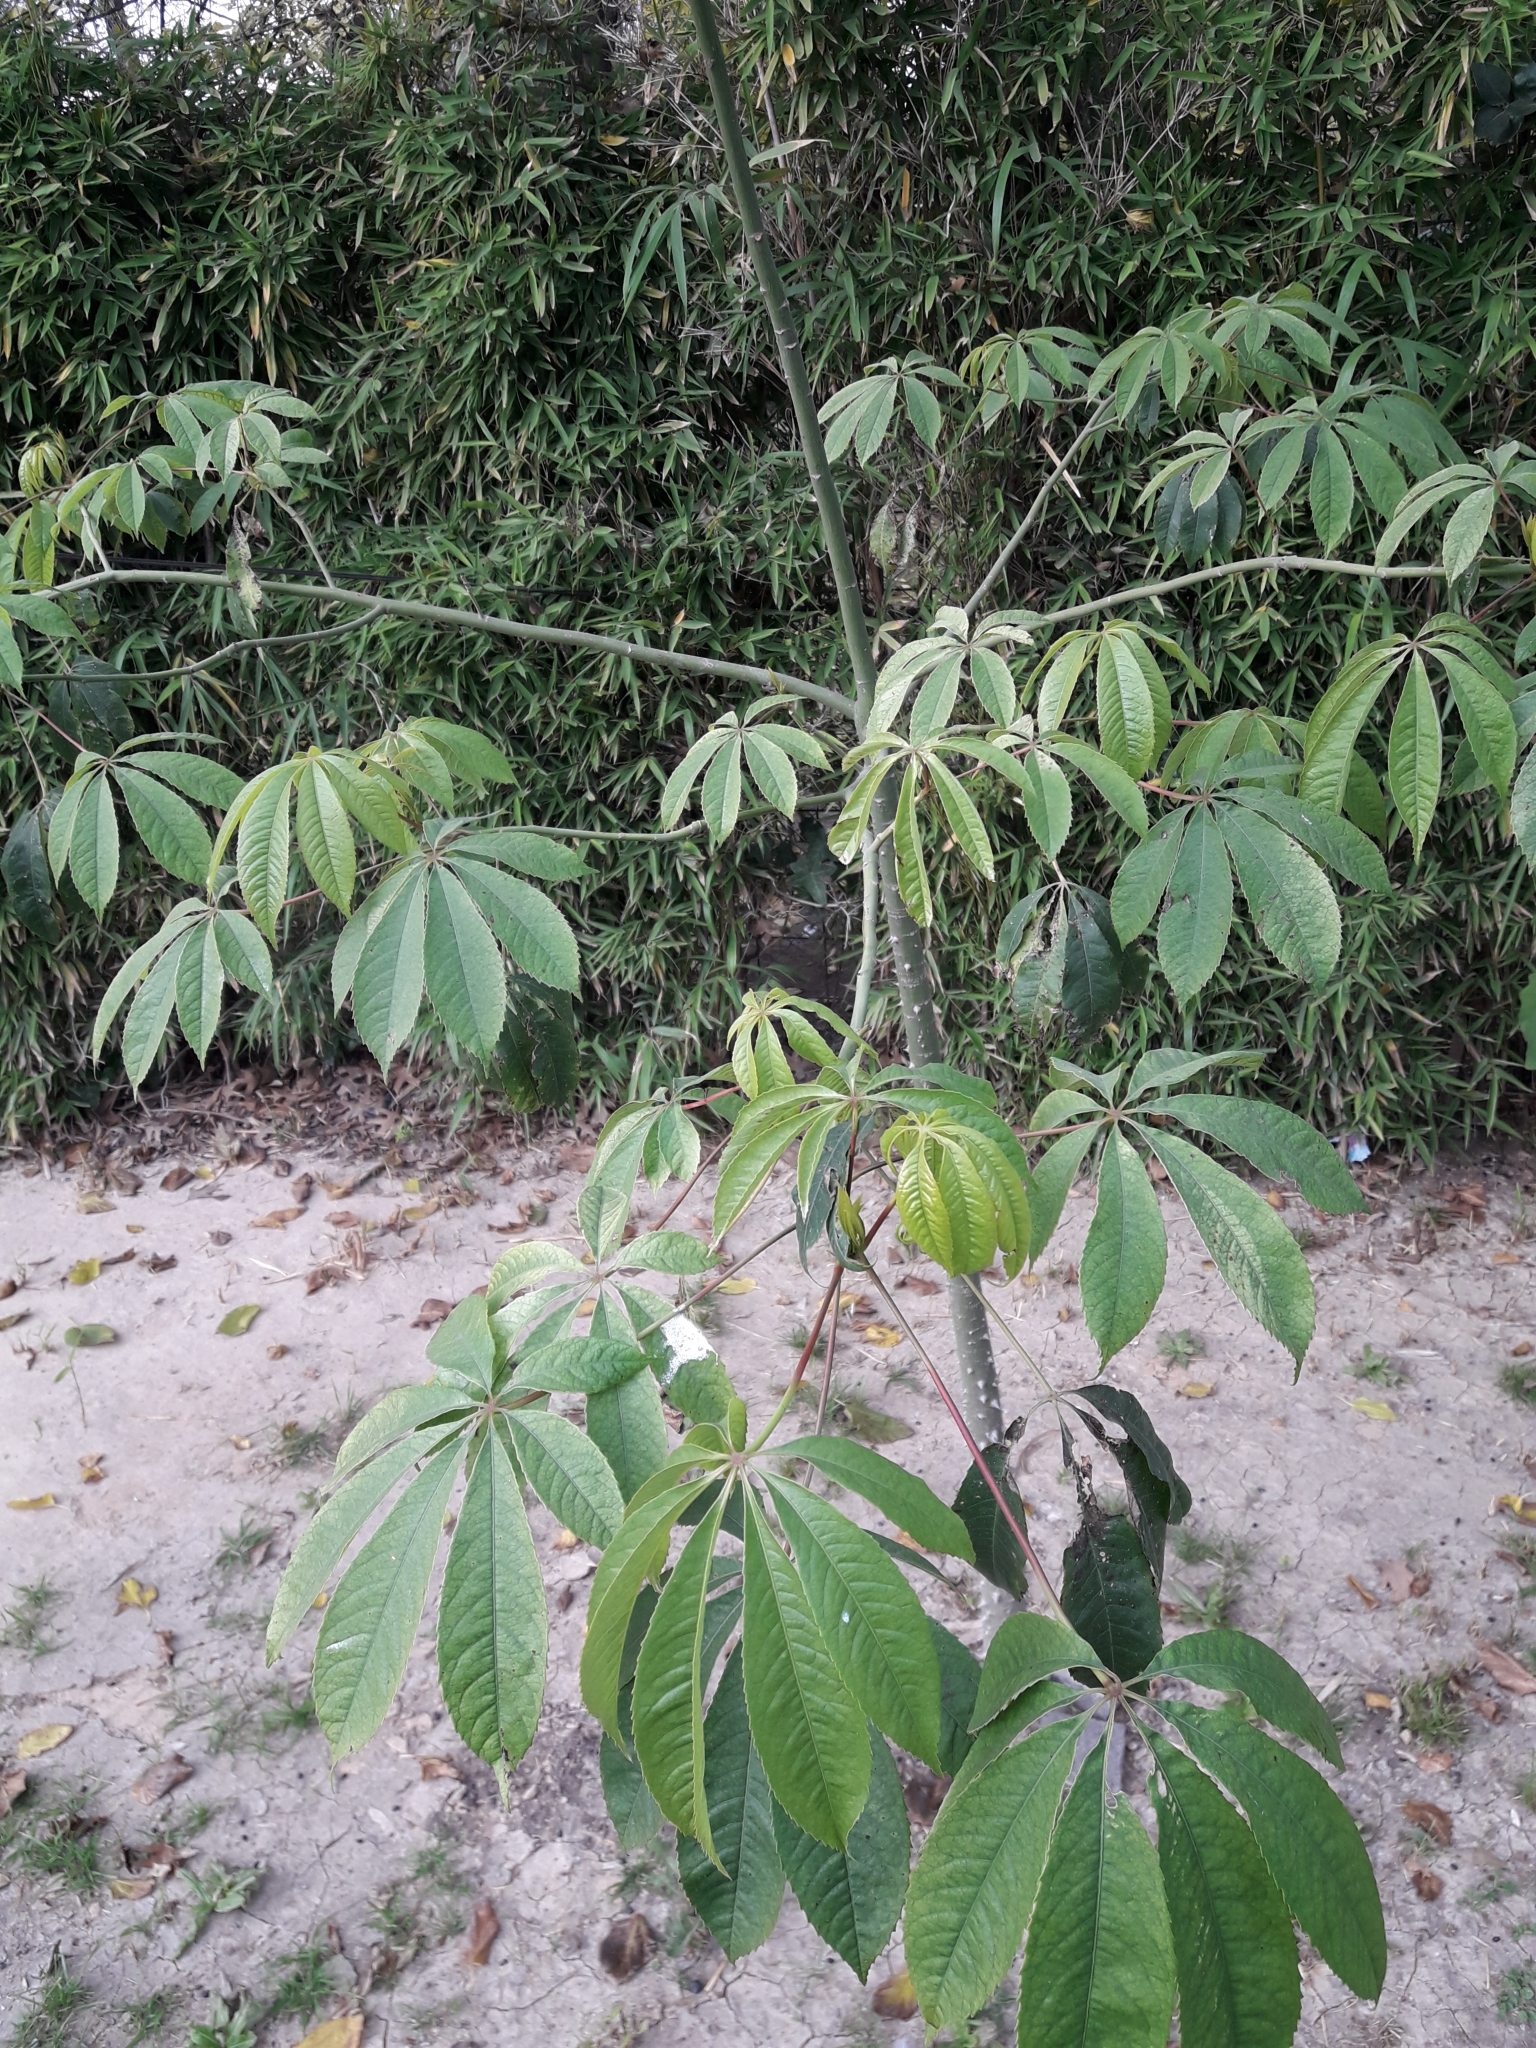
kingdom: Plantae
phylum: Tracheophyta
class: Magnoliopsida
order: Malvales
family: Malvaceae
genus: Ceiba
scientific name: Ceiba speciosa
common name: Silk-floss tree
